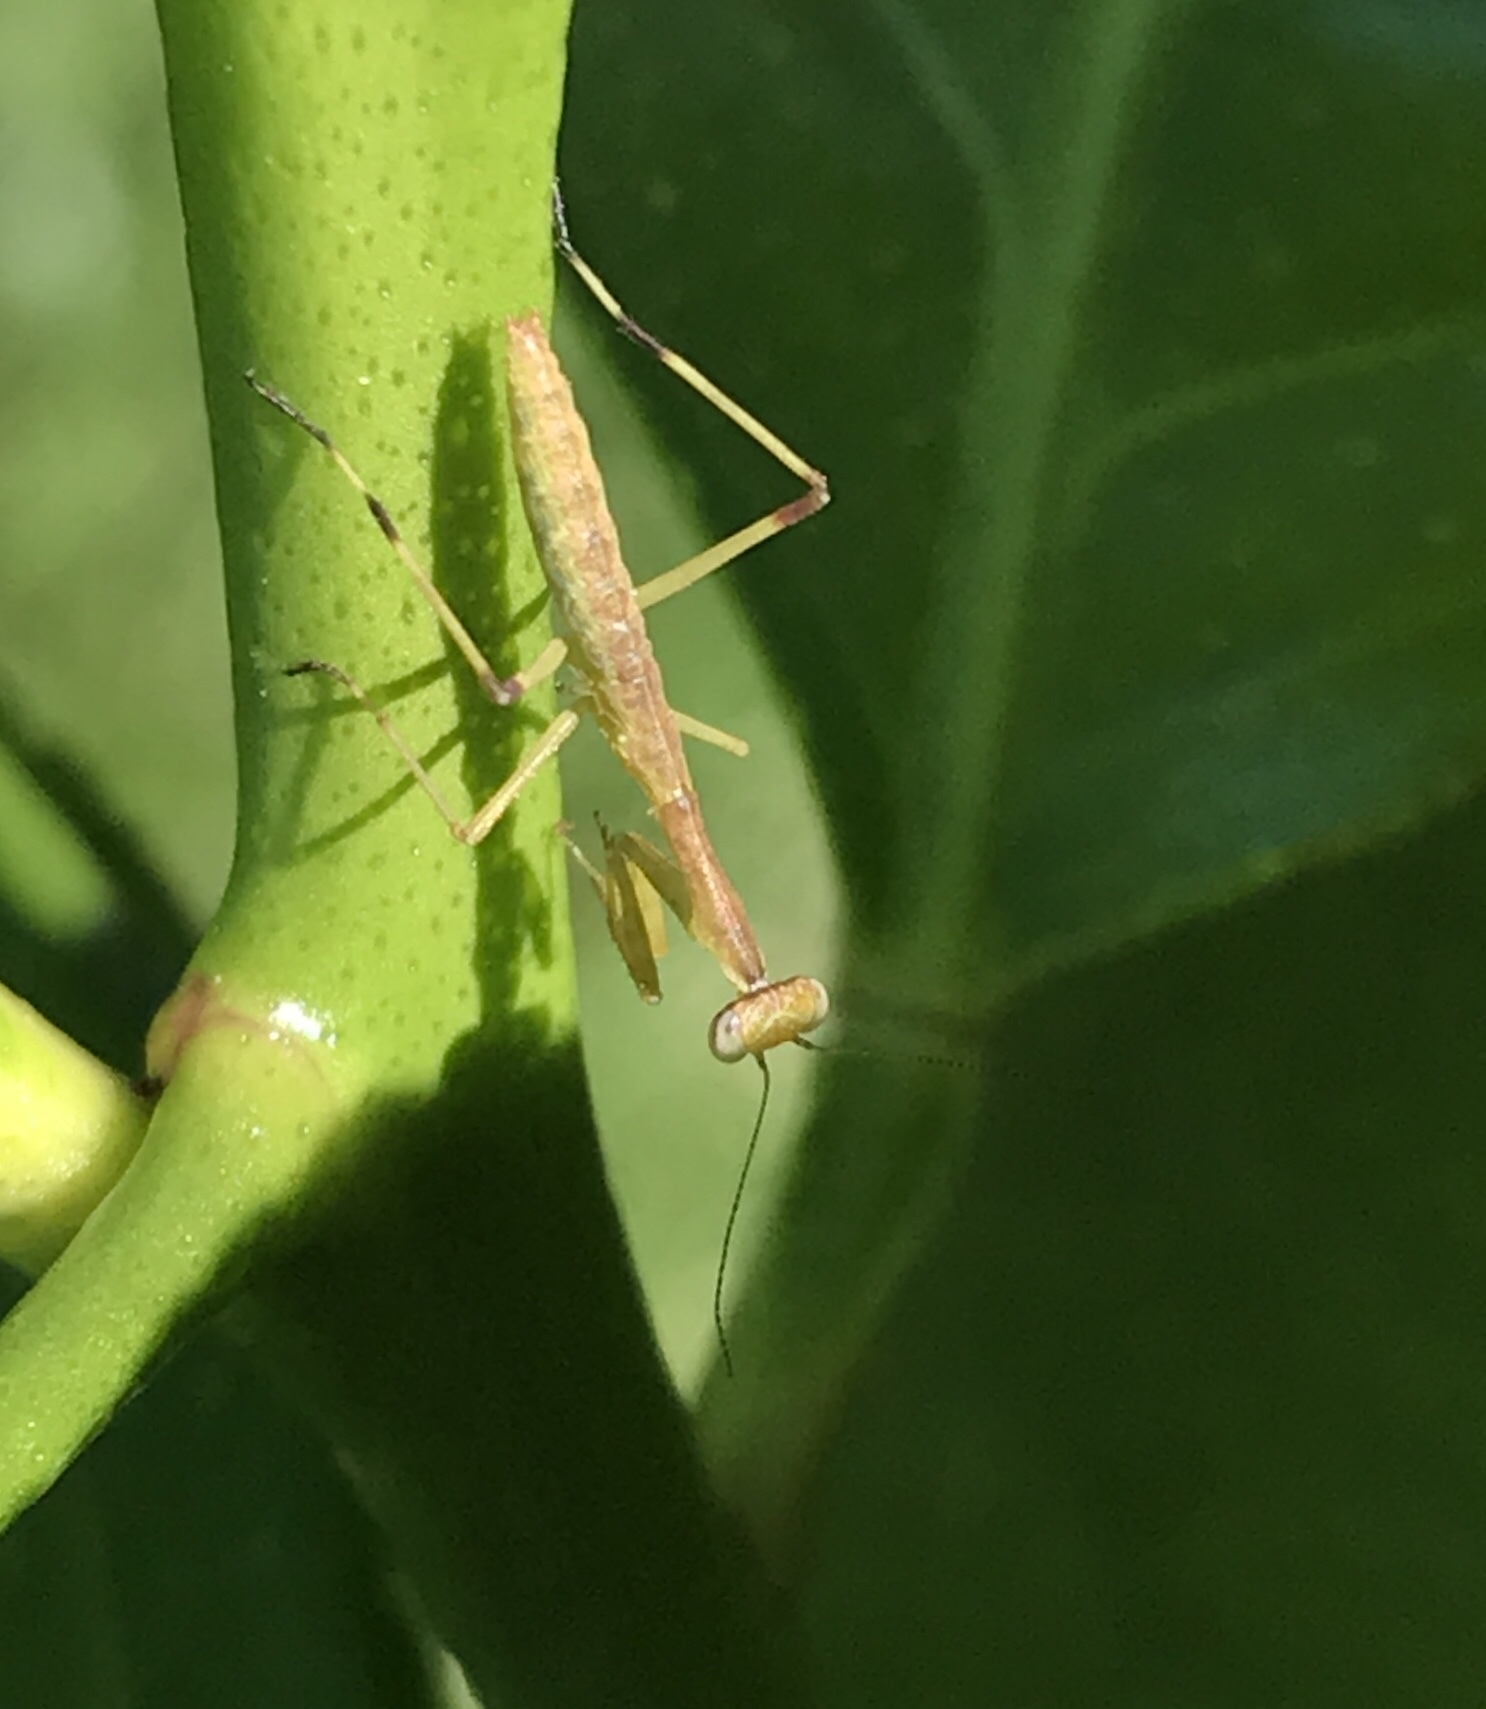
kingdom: Animalia
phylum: Arthropoda
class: Insecta
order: Mantodea
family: Mantidae
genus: Stagmomantis
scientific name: Stagmomantis carolina
